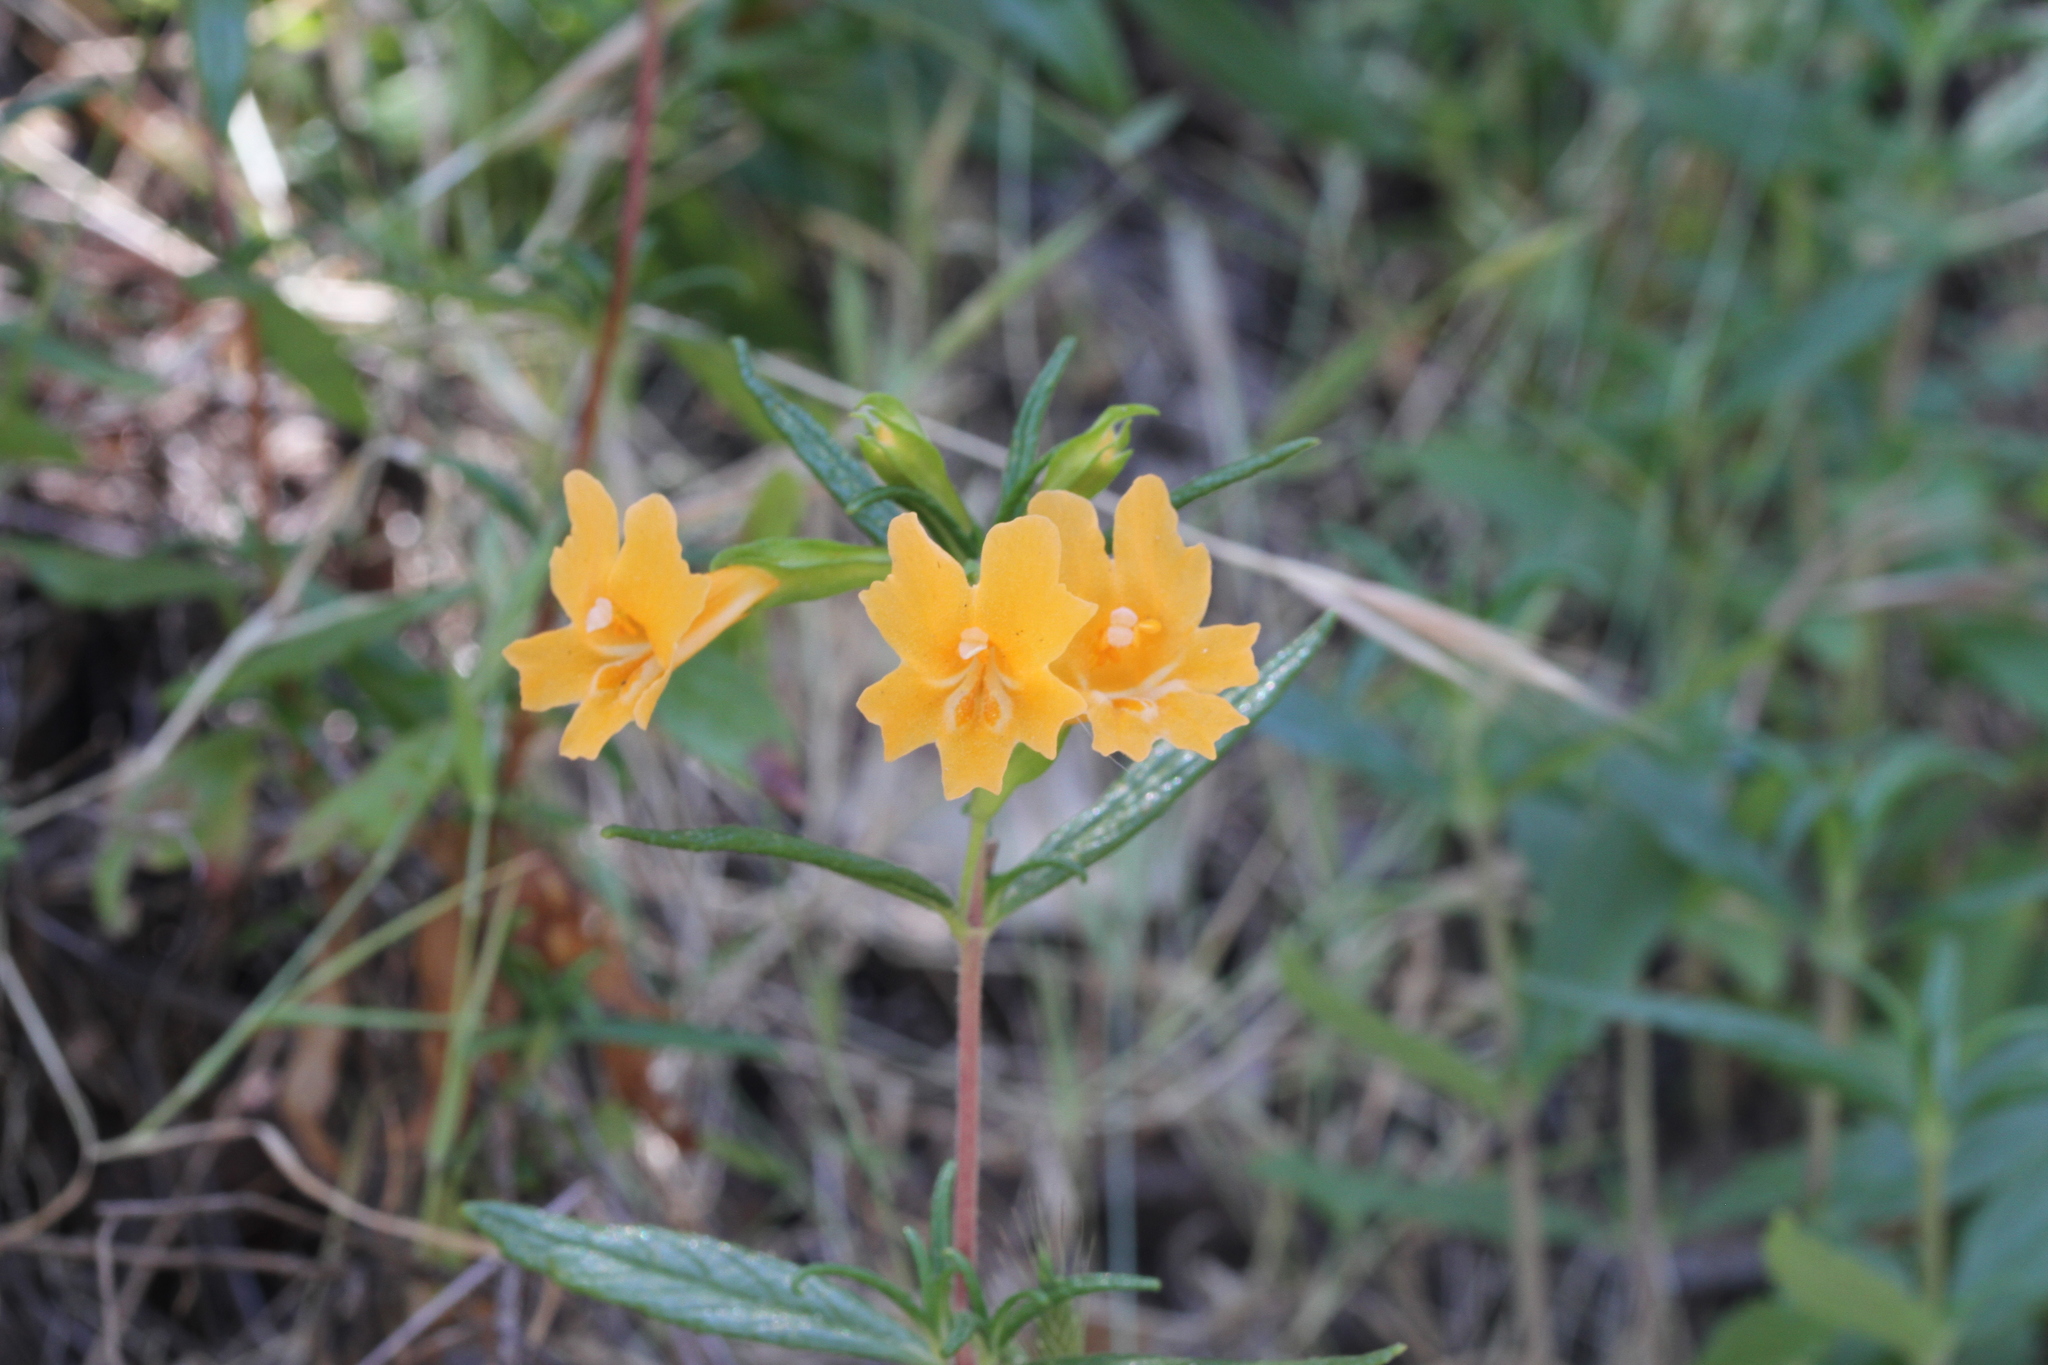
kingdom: Plantae
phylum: Tracheophyta
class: Magnoliopsida
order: Lamiales
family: Phrymaceae
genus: Diplacus
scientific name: Diplacus aurantiacus
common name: Bush monkey-flower
